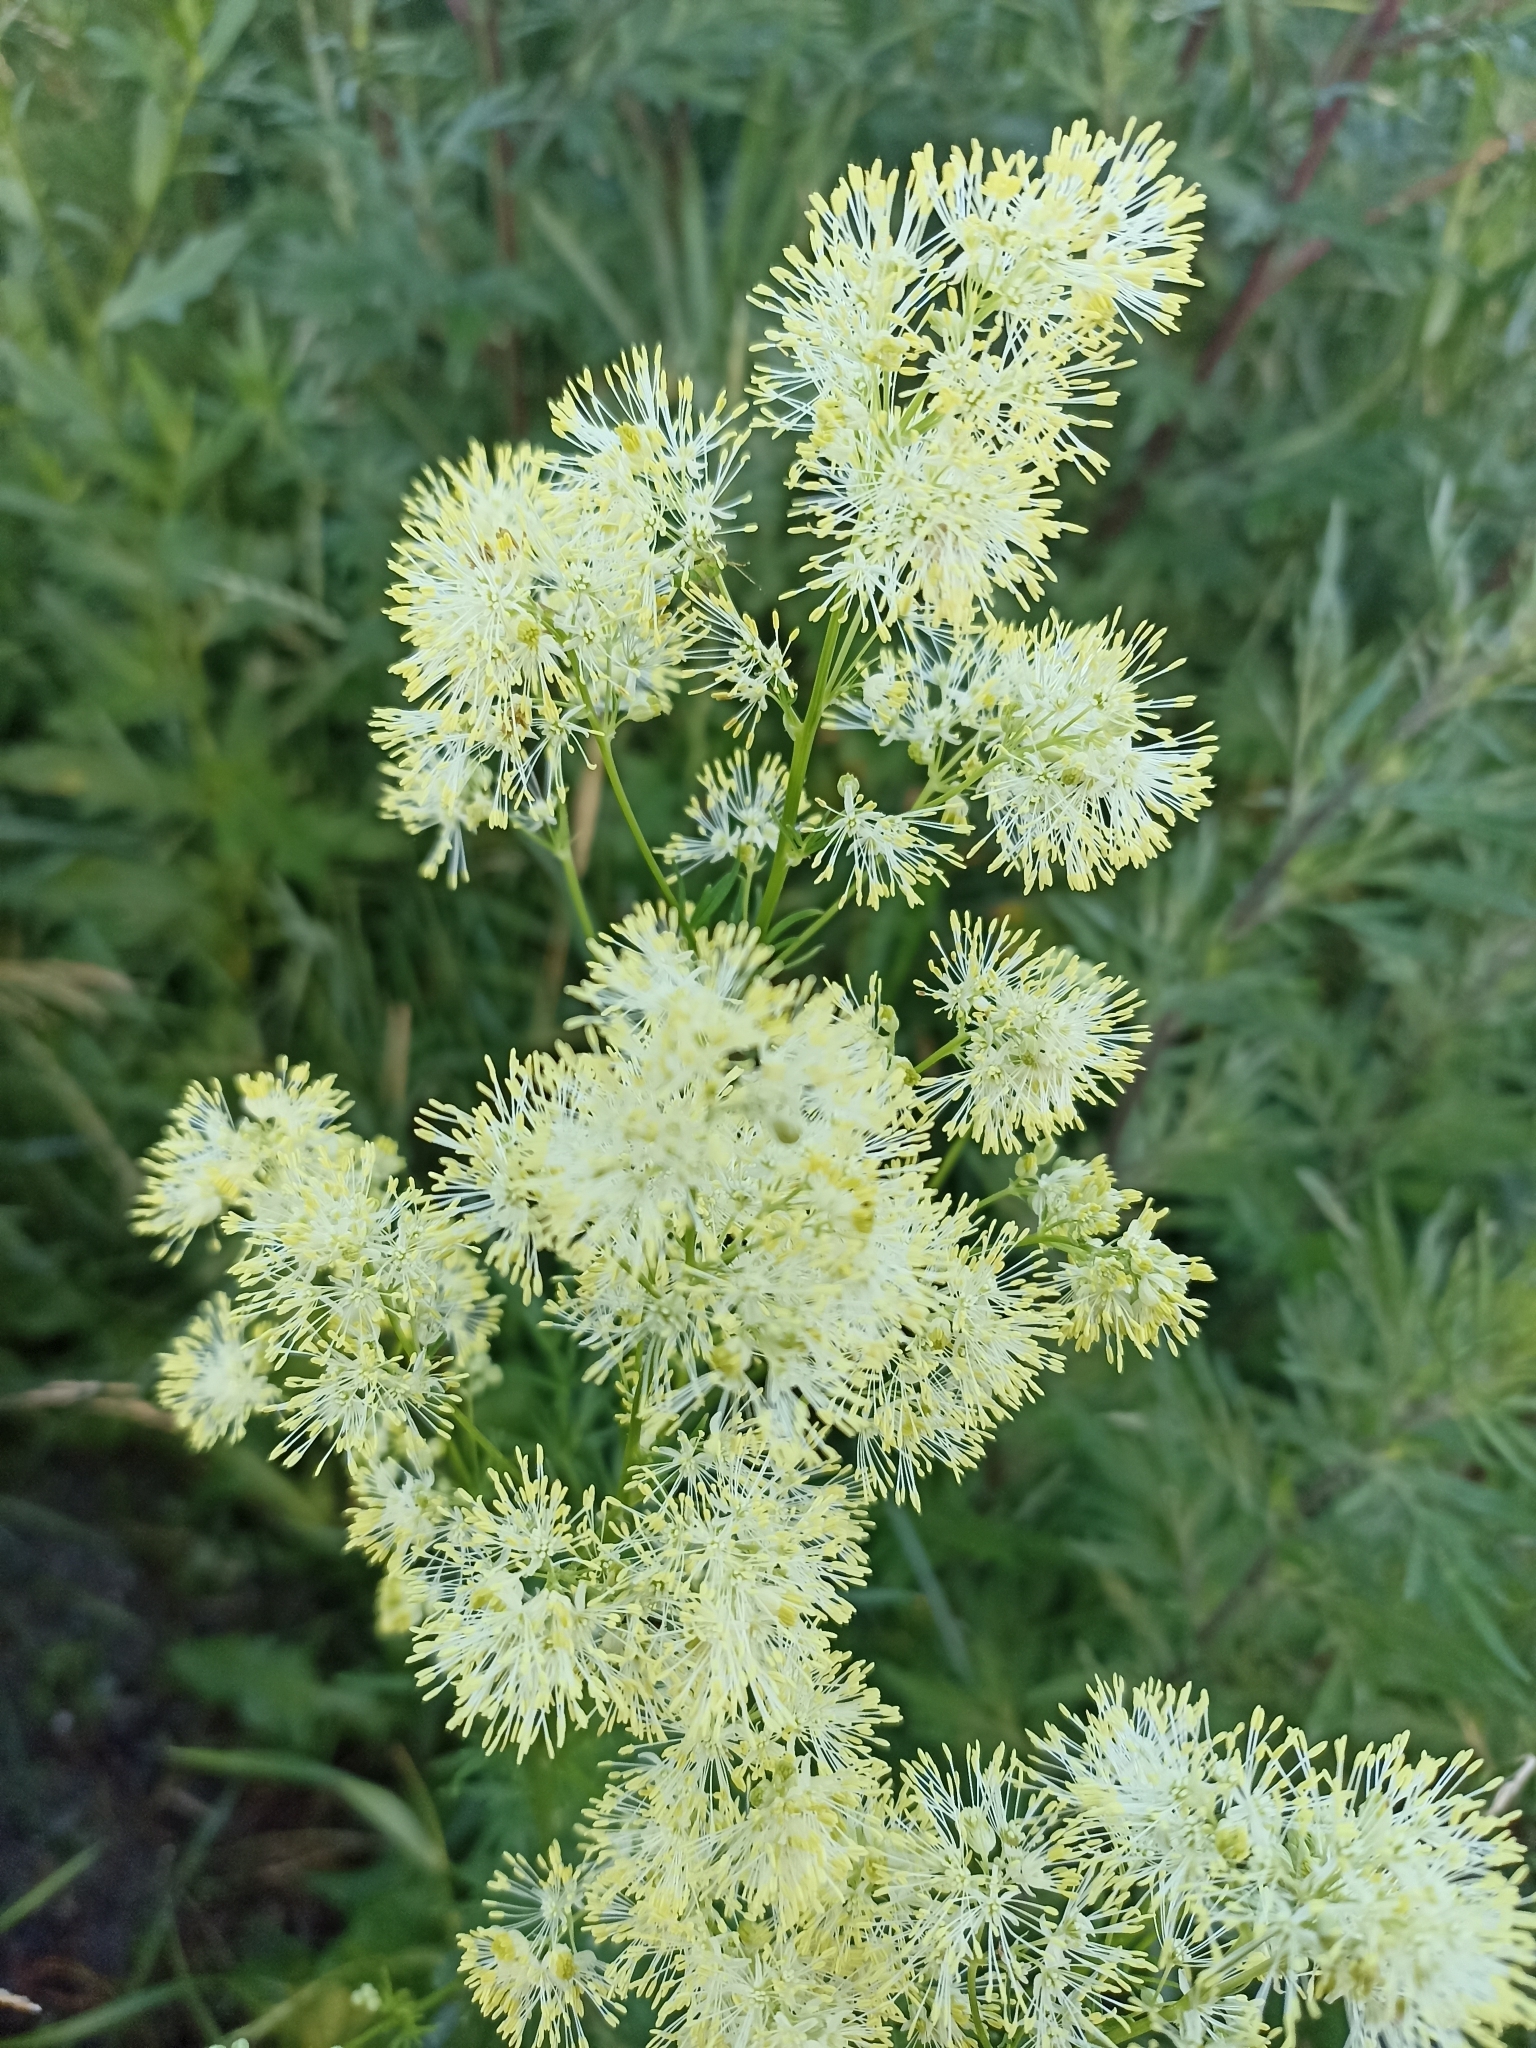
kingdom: Plantae
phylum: Tracheophyta
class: Magnoliopsida
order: Ranunculales
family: Ranunculaceae
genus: Thalictrum
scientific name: Thalictrum lucidum
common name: Shining meadow-rue
